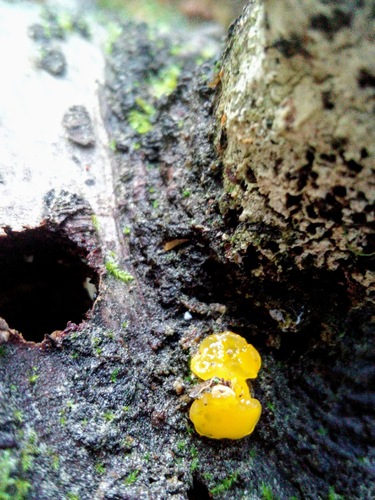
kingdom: Fungi
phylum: Basidiomycota
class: Tremellomycetes
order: Tremellales
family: Tremellaceae
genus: Tremella
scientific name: Tremella mesenterica
